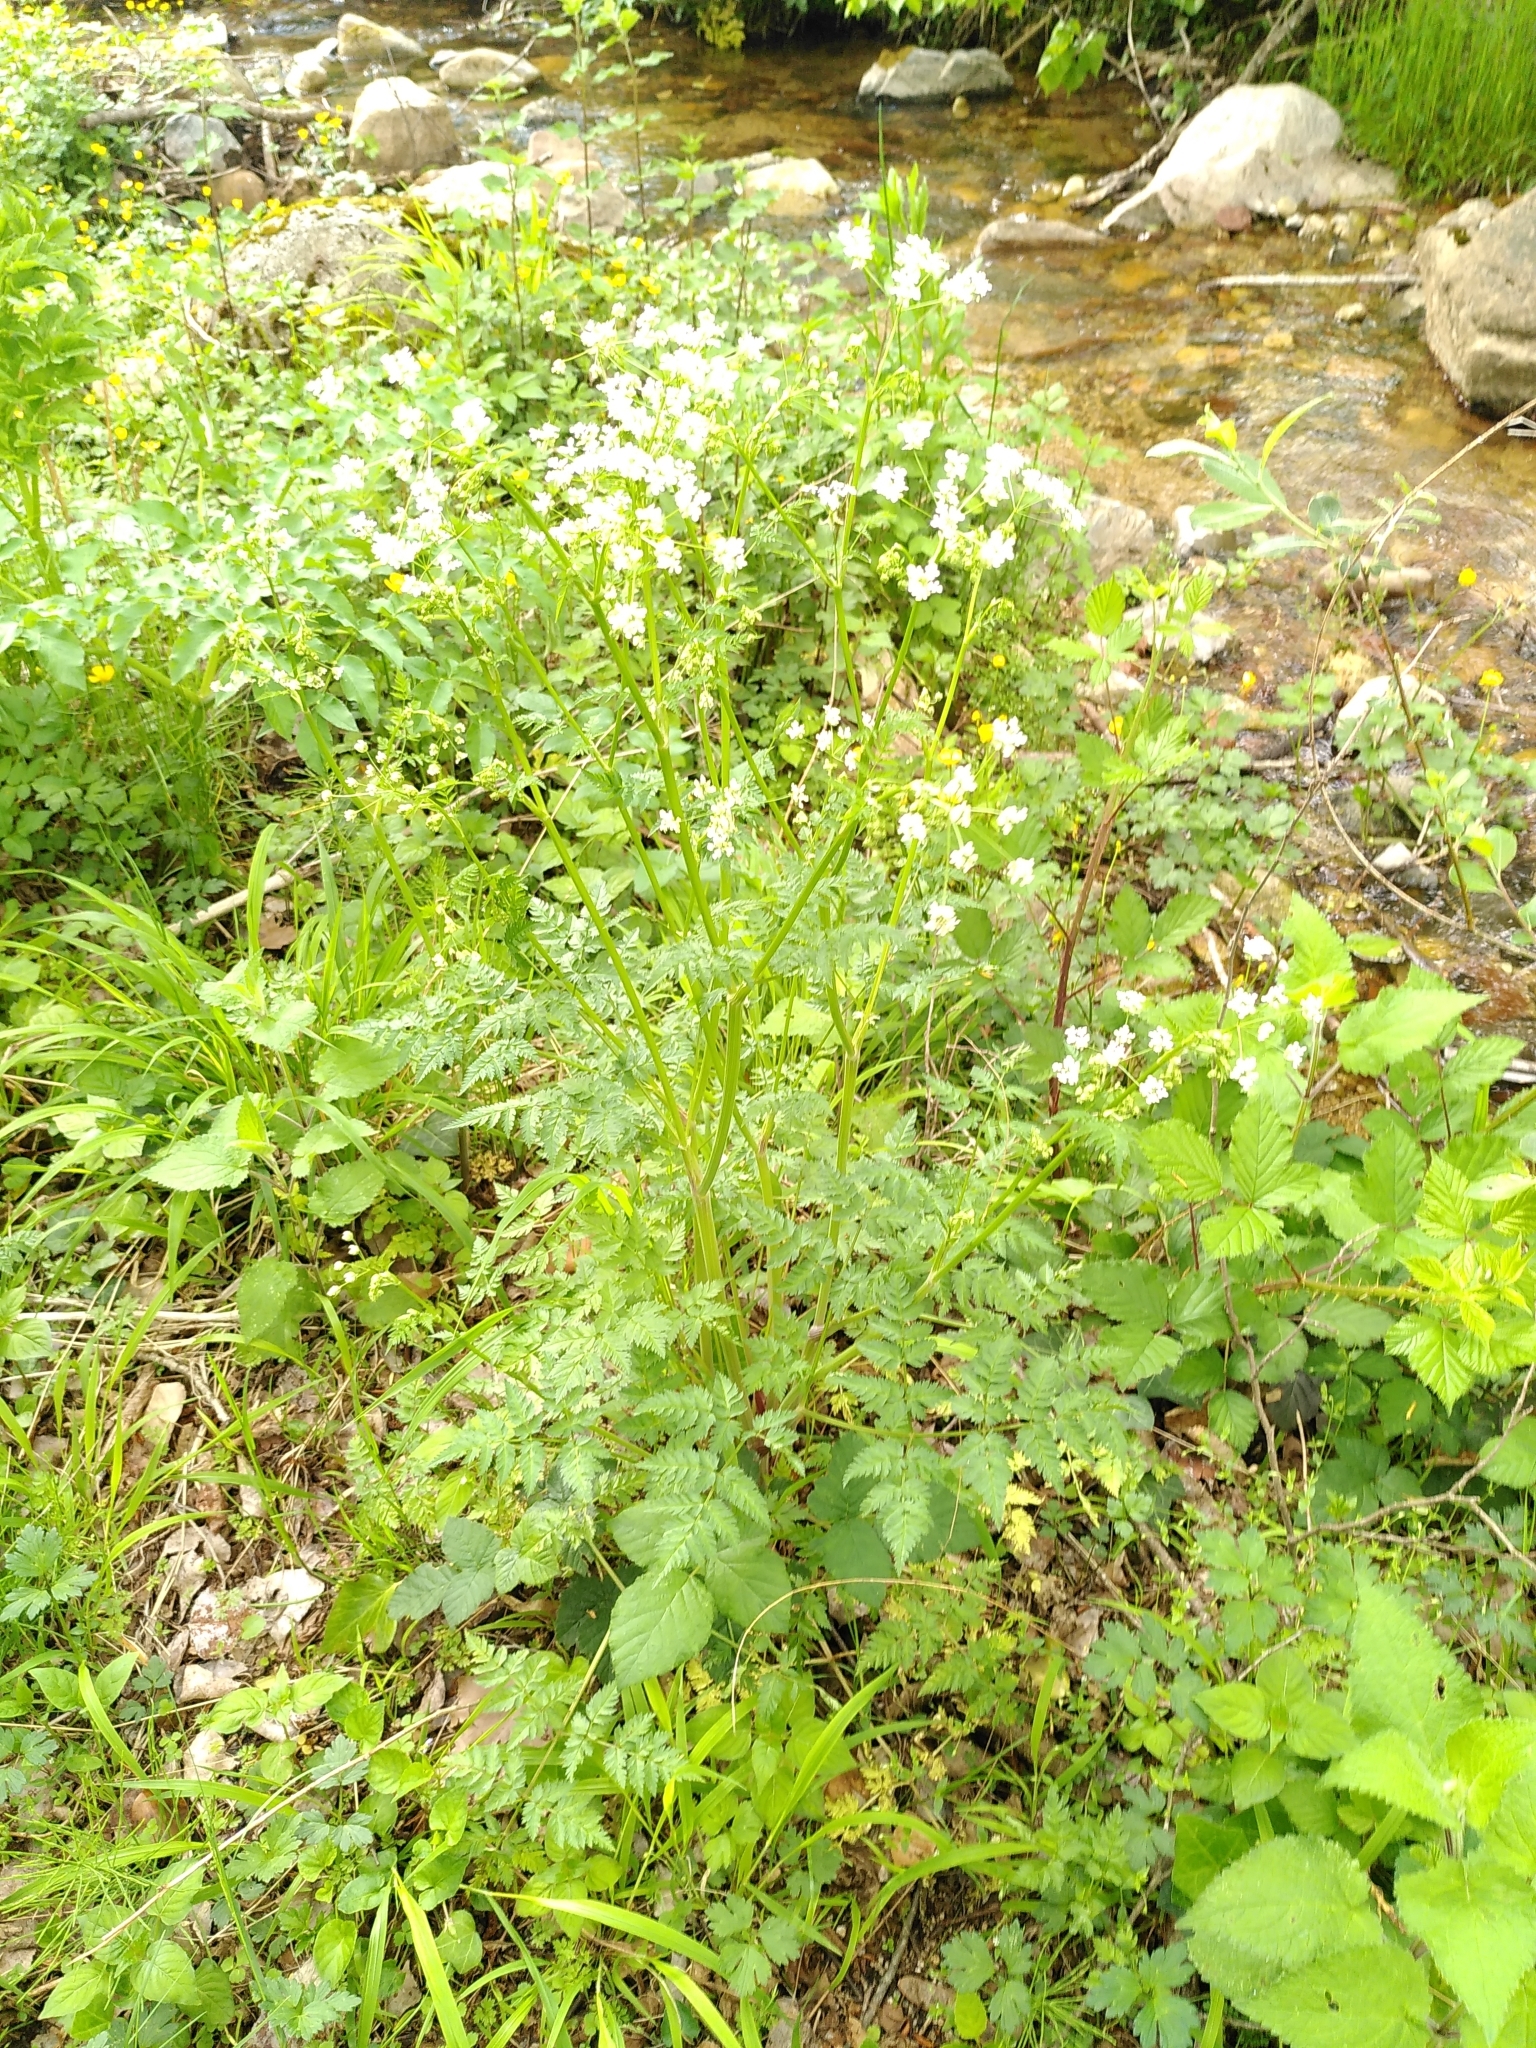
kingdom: Plantae
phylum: Tracheophyta
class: Magnoliopsida
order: Apiales
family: Apiaceae
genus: Anthriscus
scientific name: Anthriscus sylvestris
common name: Cow parsley
